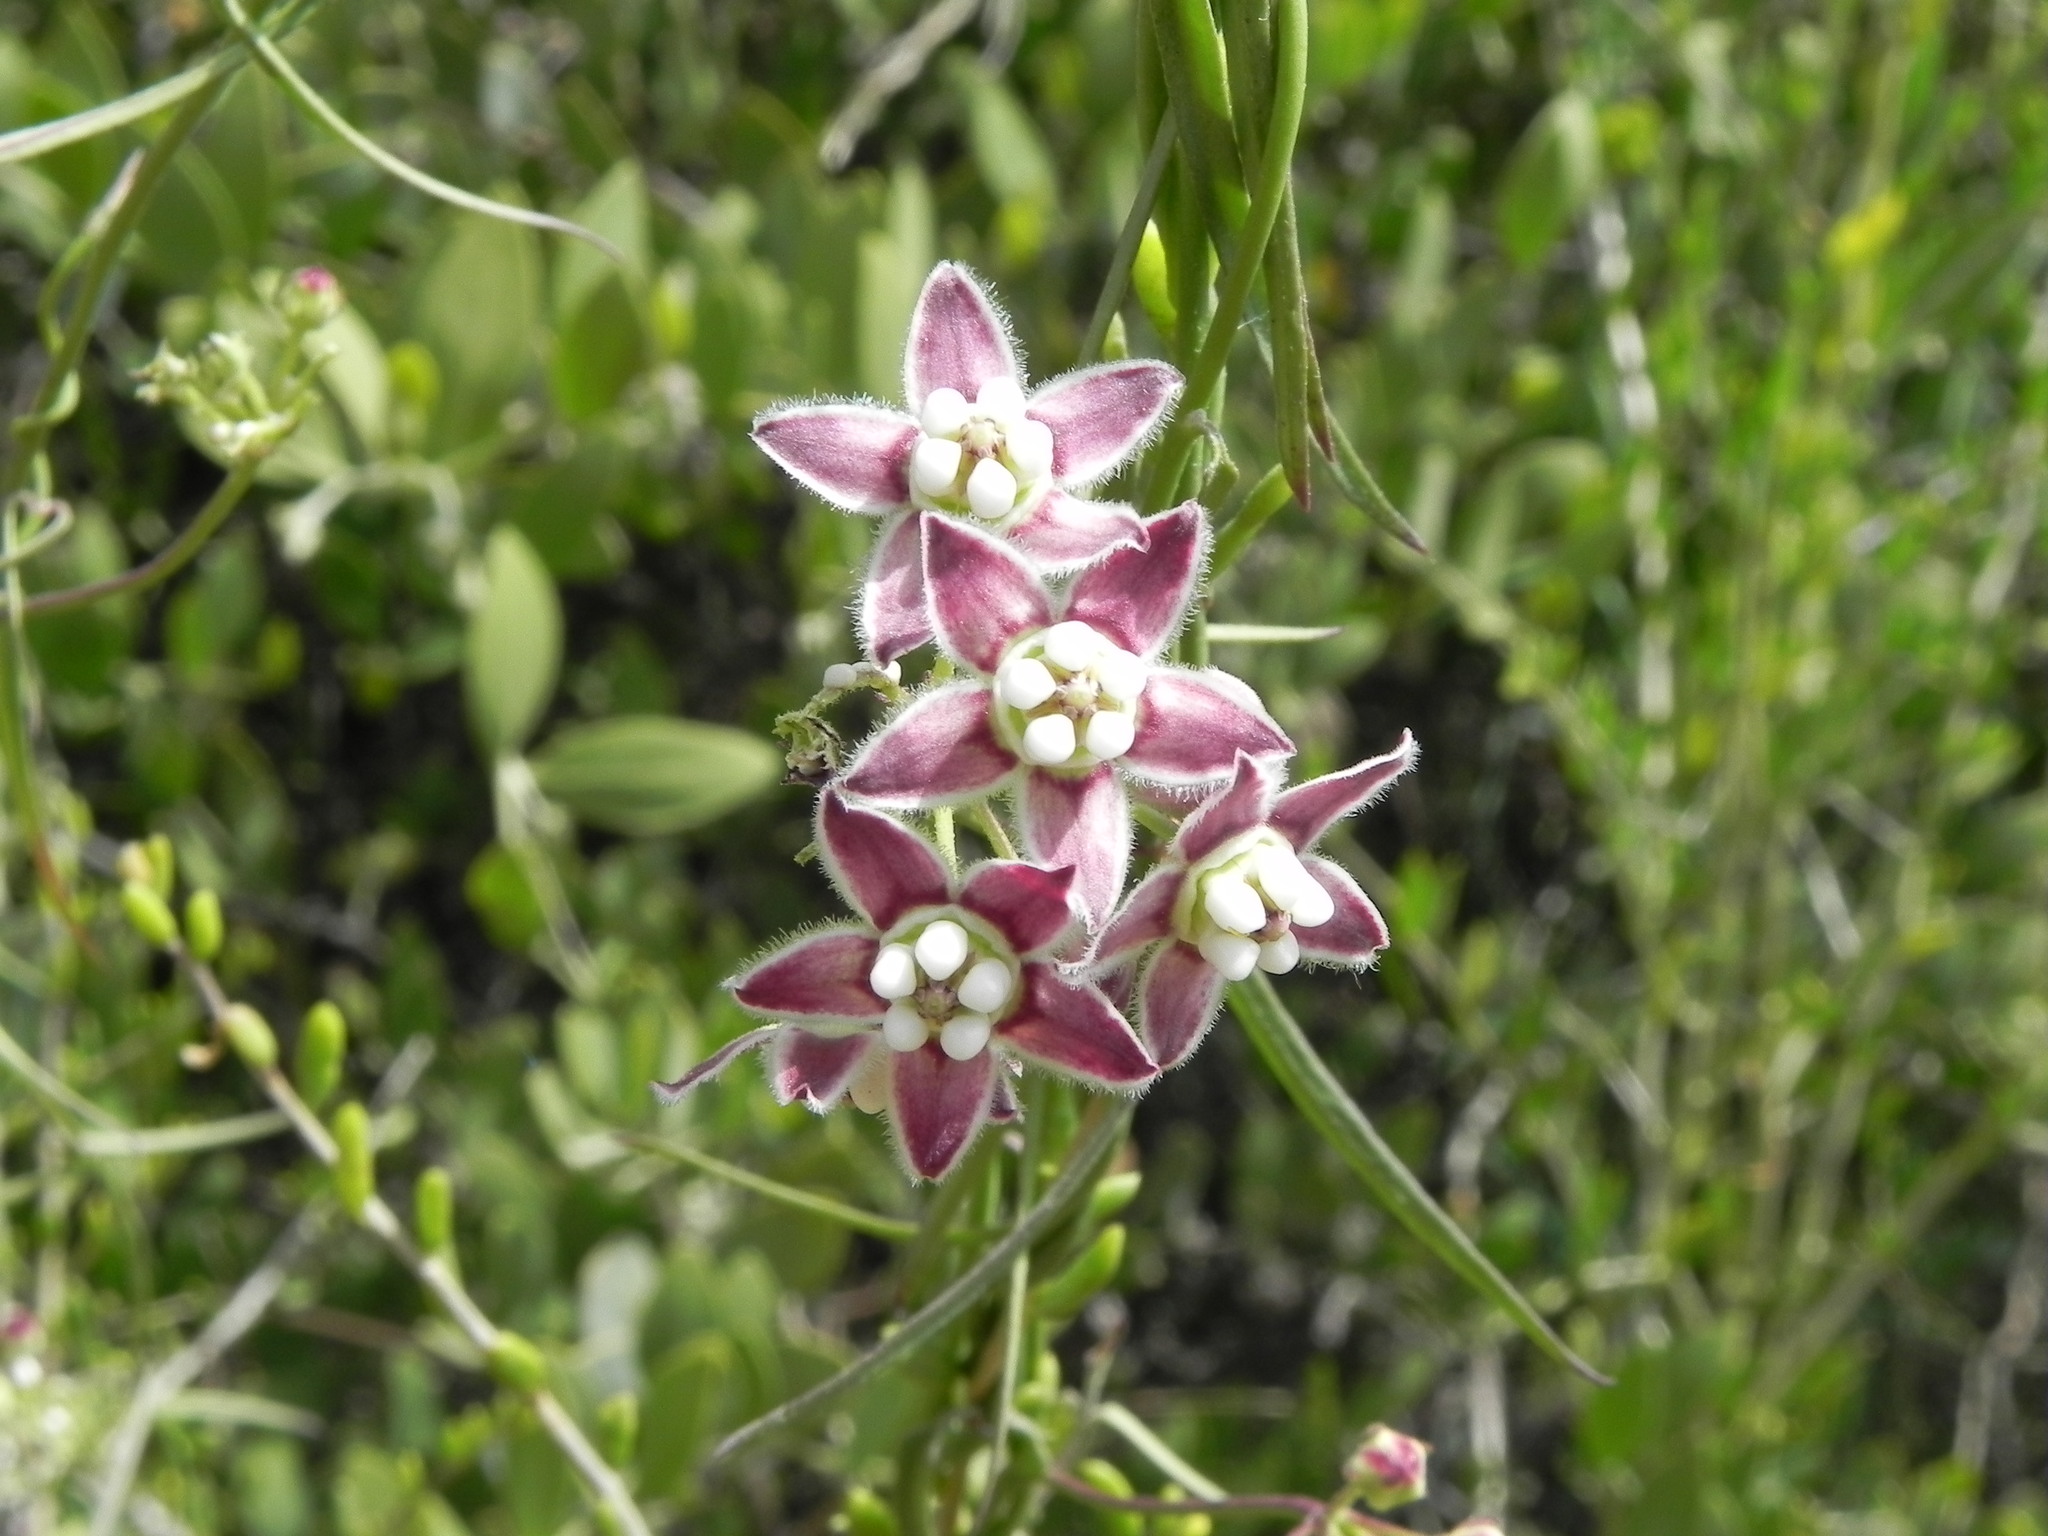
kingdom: Plantae
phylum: Tracheophyta
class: Magnoliopsida
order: Gentianales
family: Apocynaceae
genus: Funastrum
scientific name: Funastrum heterophyllum
